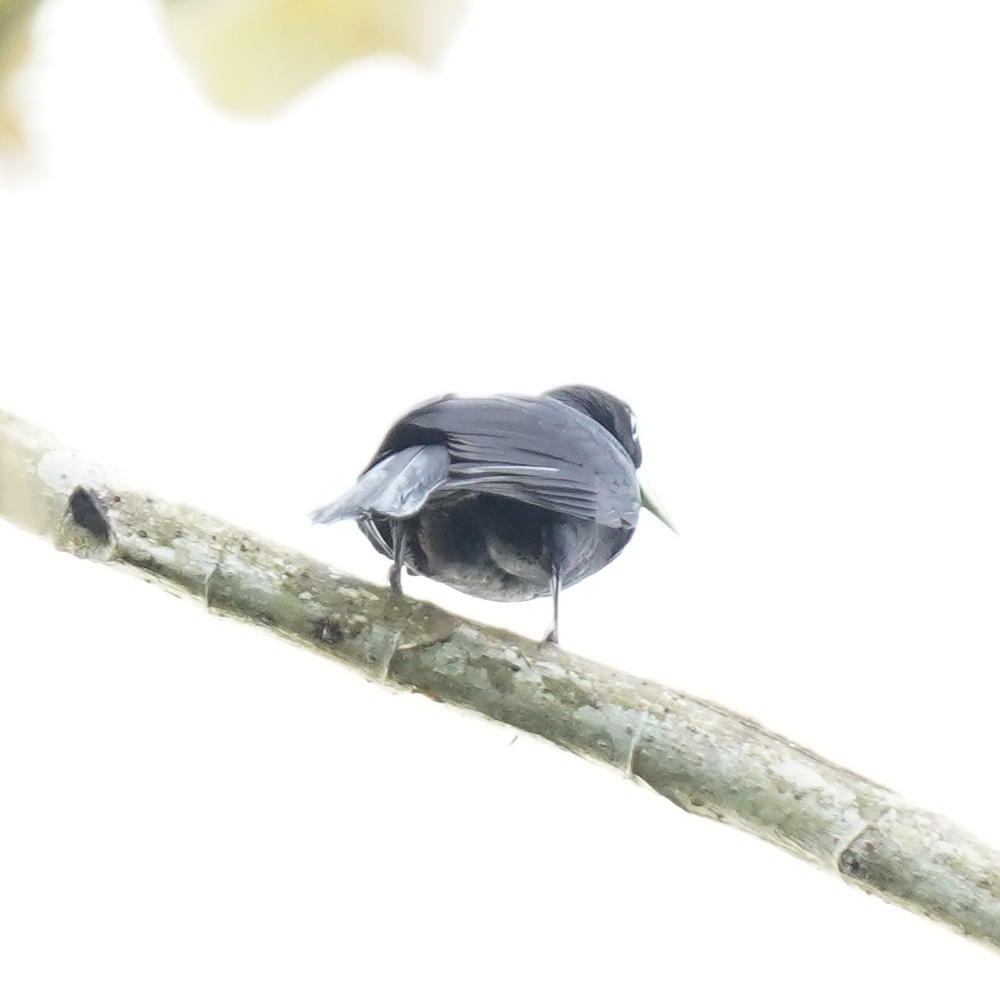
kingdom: Animalia
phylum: Chordata
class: Aves
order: Passeriformes
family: Icteridae
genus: Cacicus
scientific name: Cacicus uropygialis
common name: Scarlet-rumped cacique
